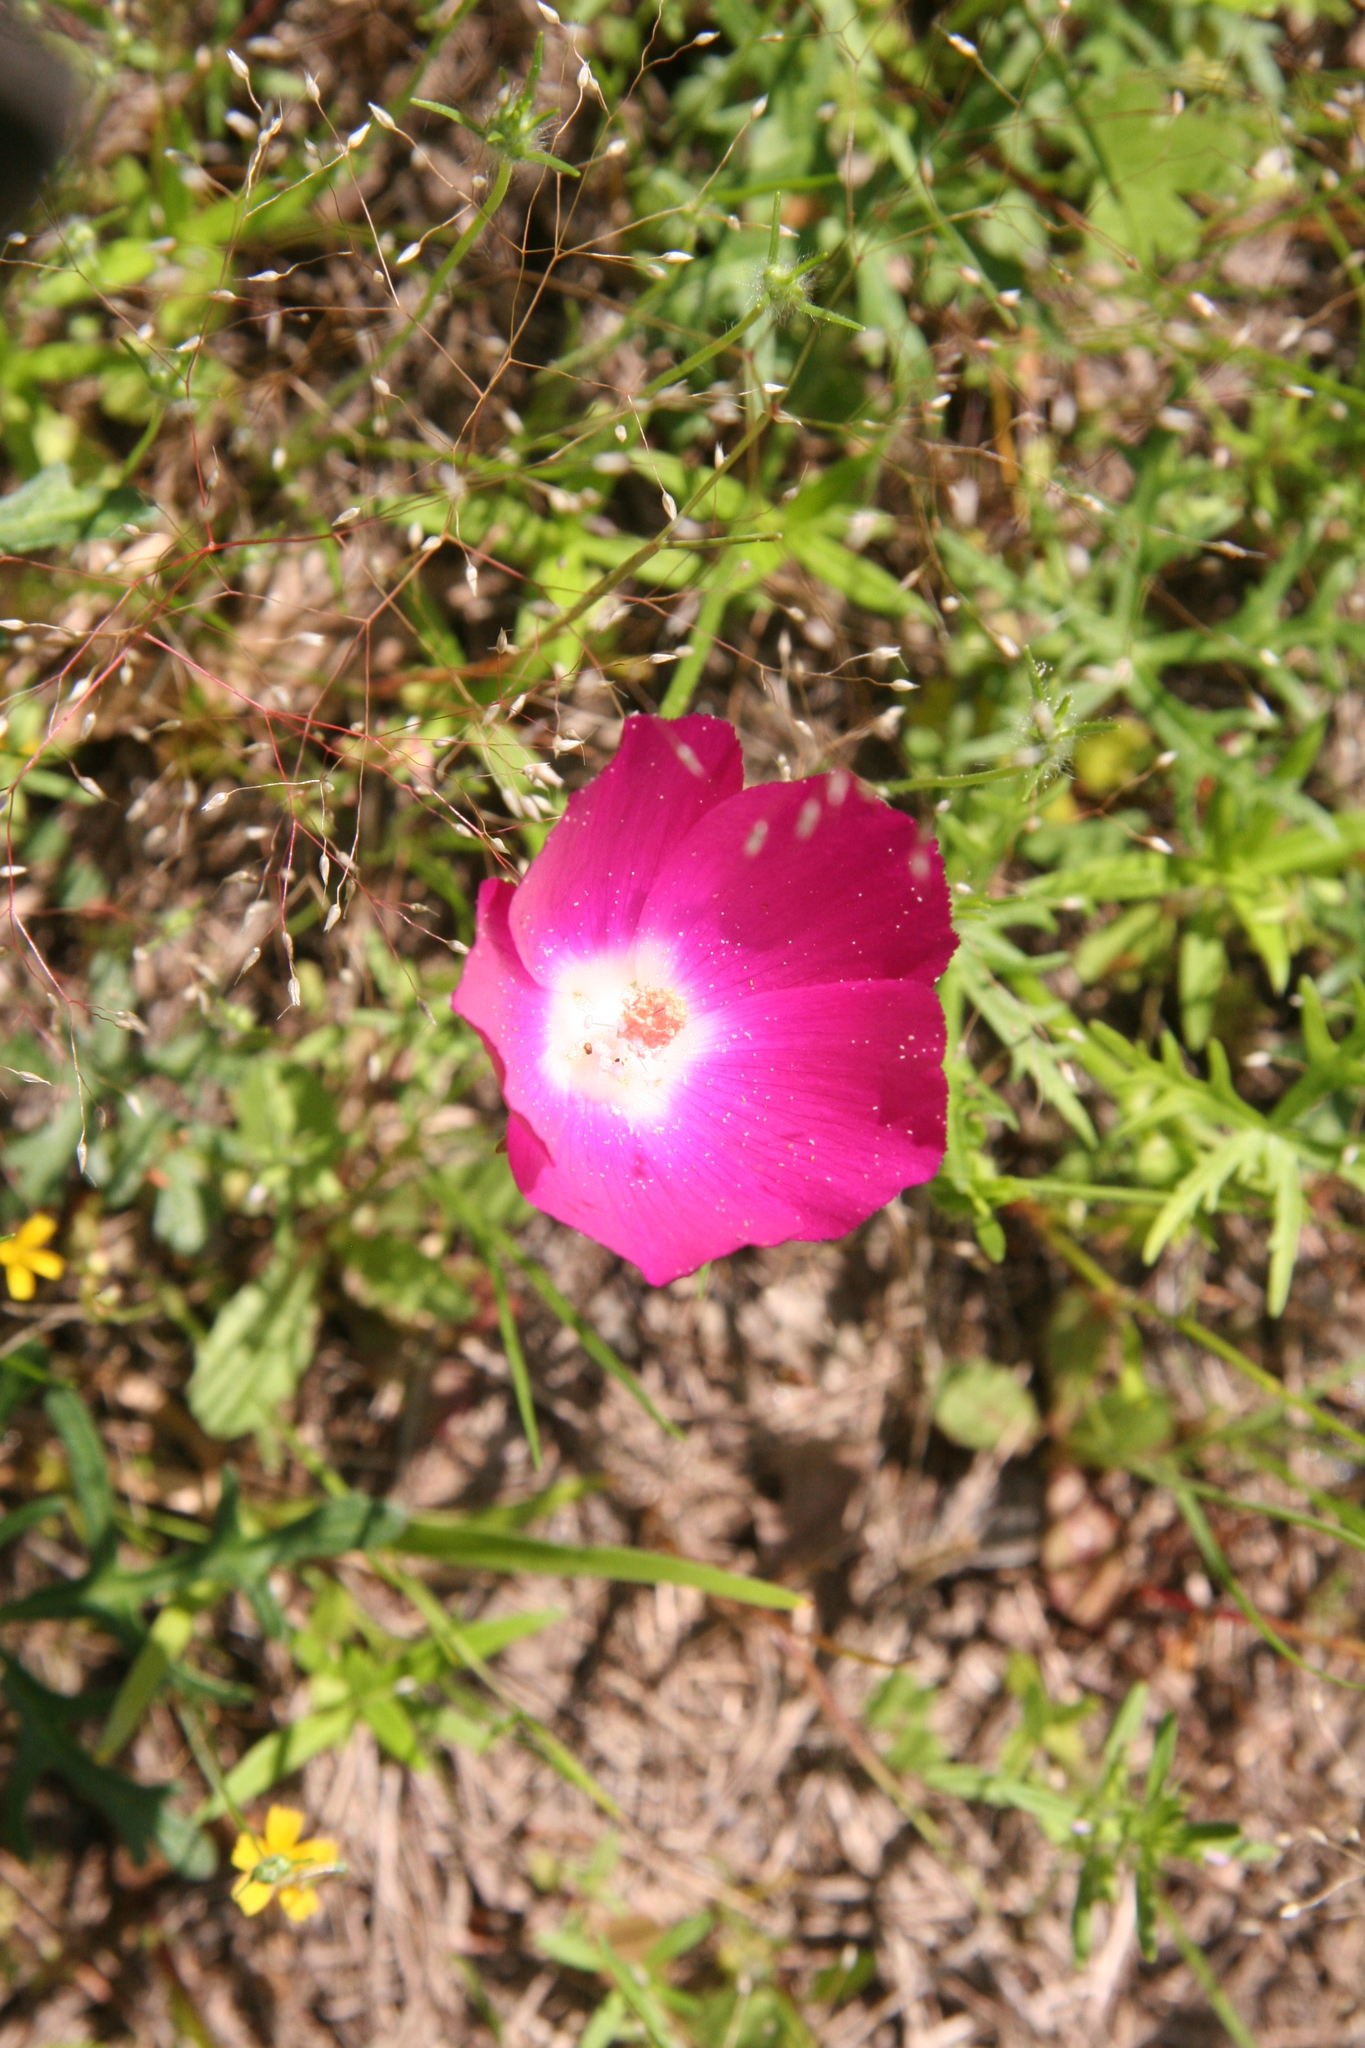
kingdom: Plantae
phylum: Tracheophyta
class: Magnoliopsida
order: Malvales
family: Malvaceae
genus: Callirhoe
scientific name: Callirhoe involucrata
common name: Purple poppy-mallow
